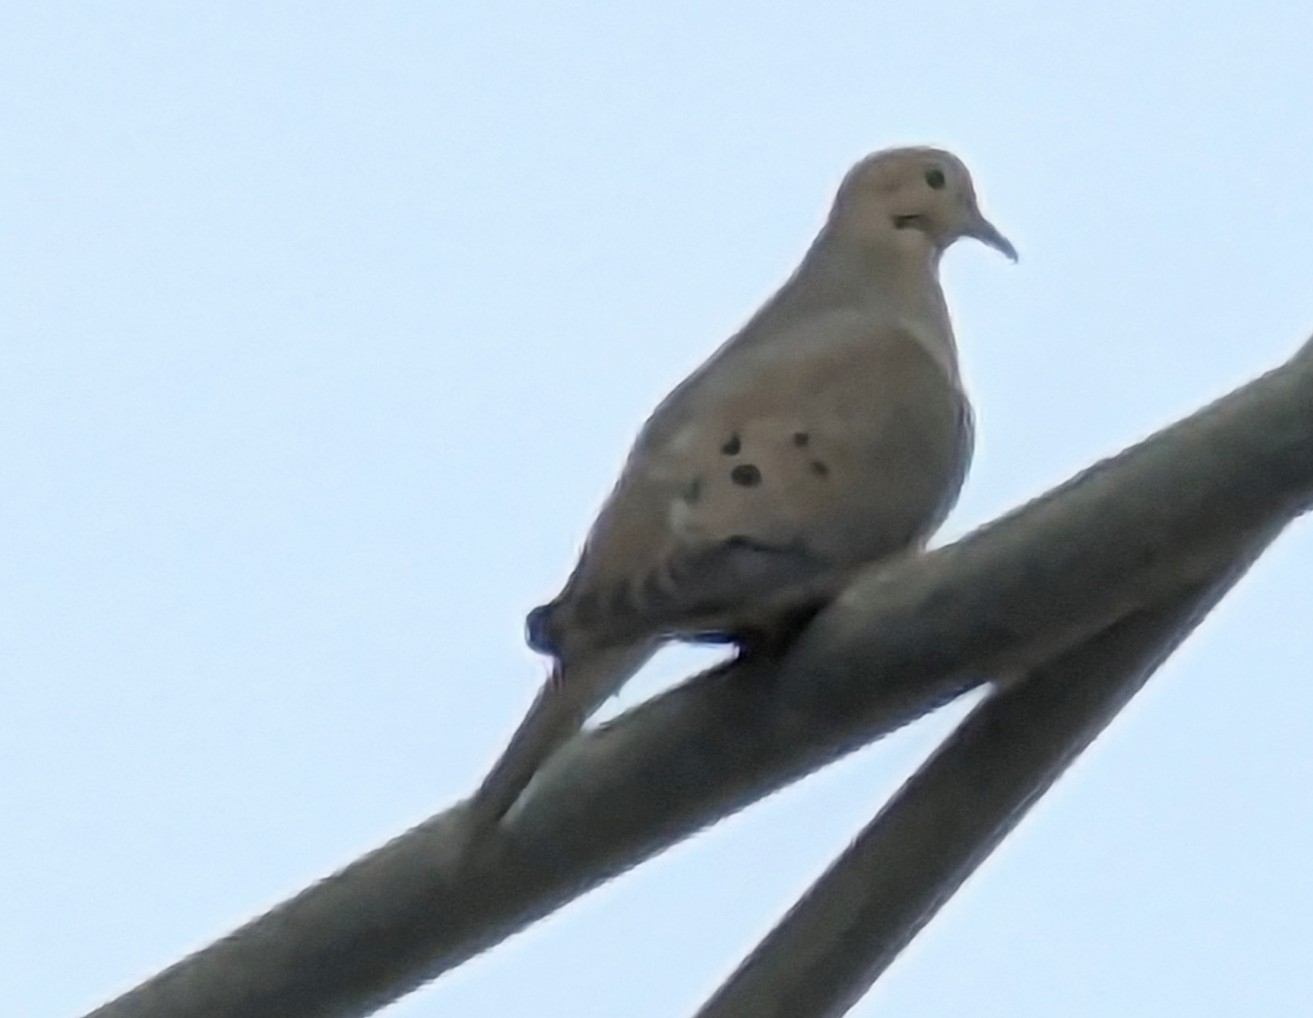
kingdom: Animalia
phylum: Chordata
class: Aves
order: Columbiformes
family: Columbidae
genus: Zenaida
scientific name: Zenaida macroura
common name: Mourning dove
